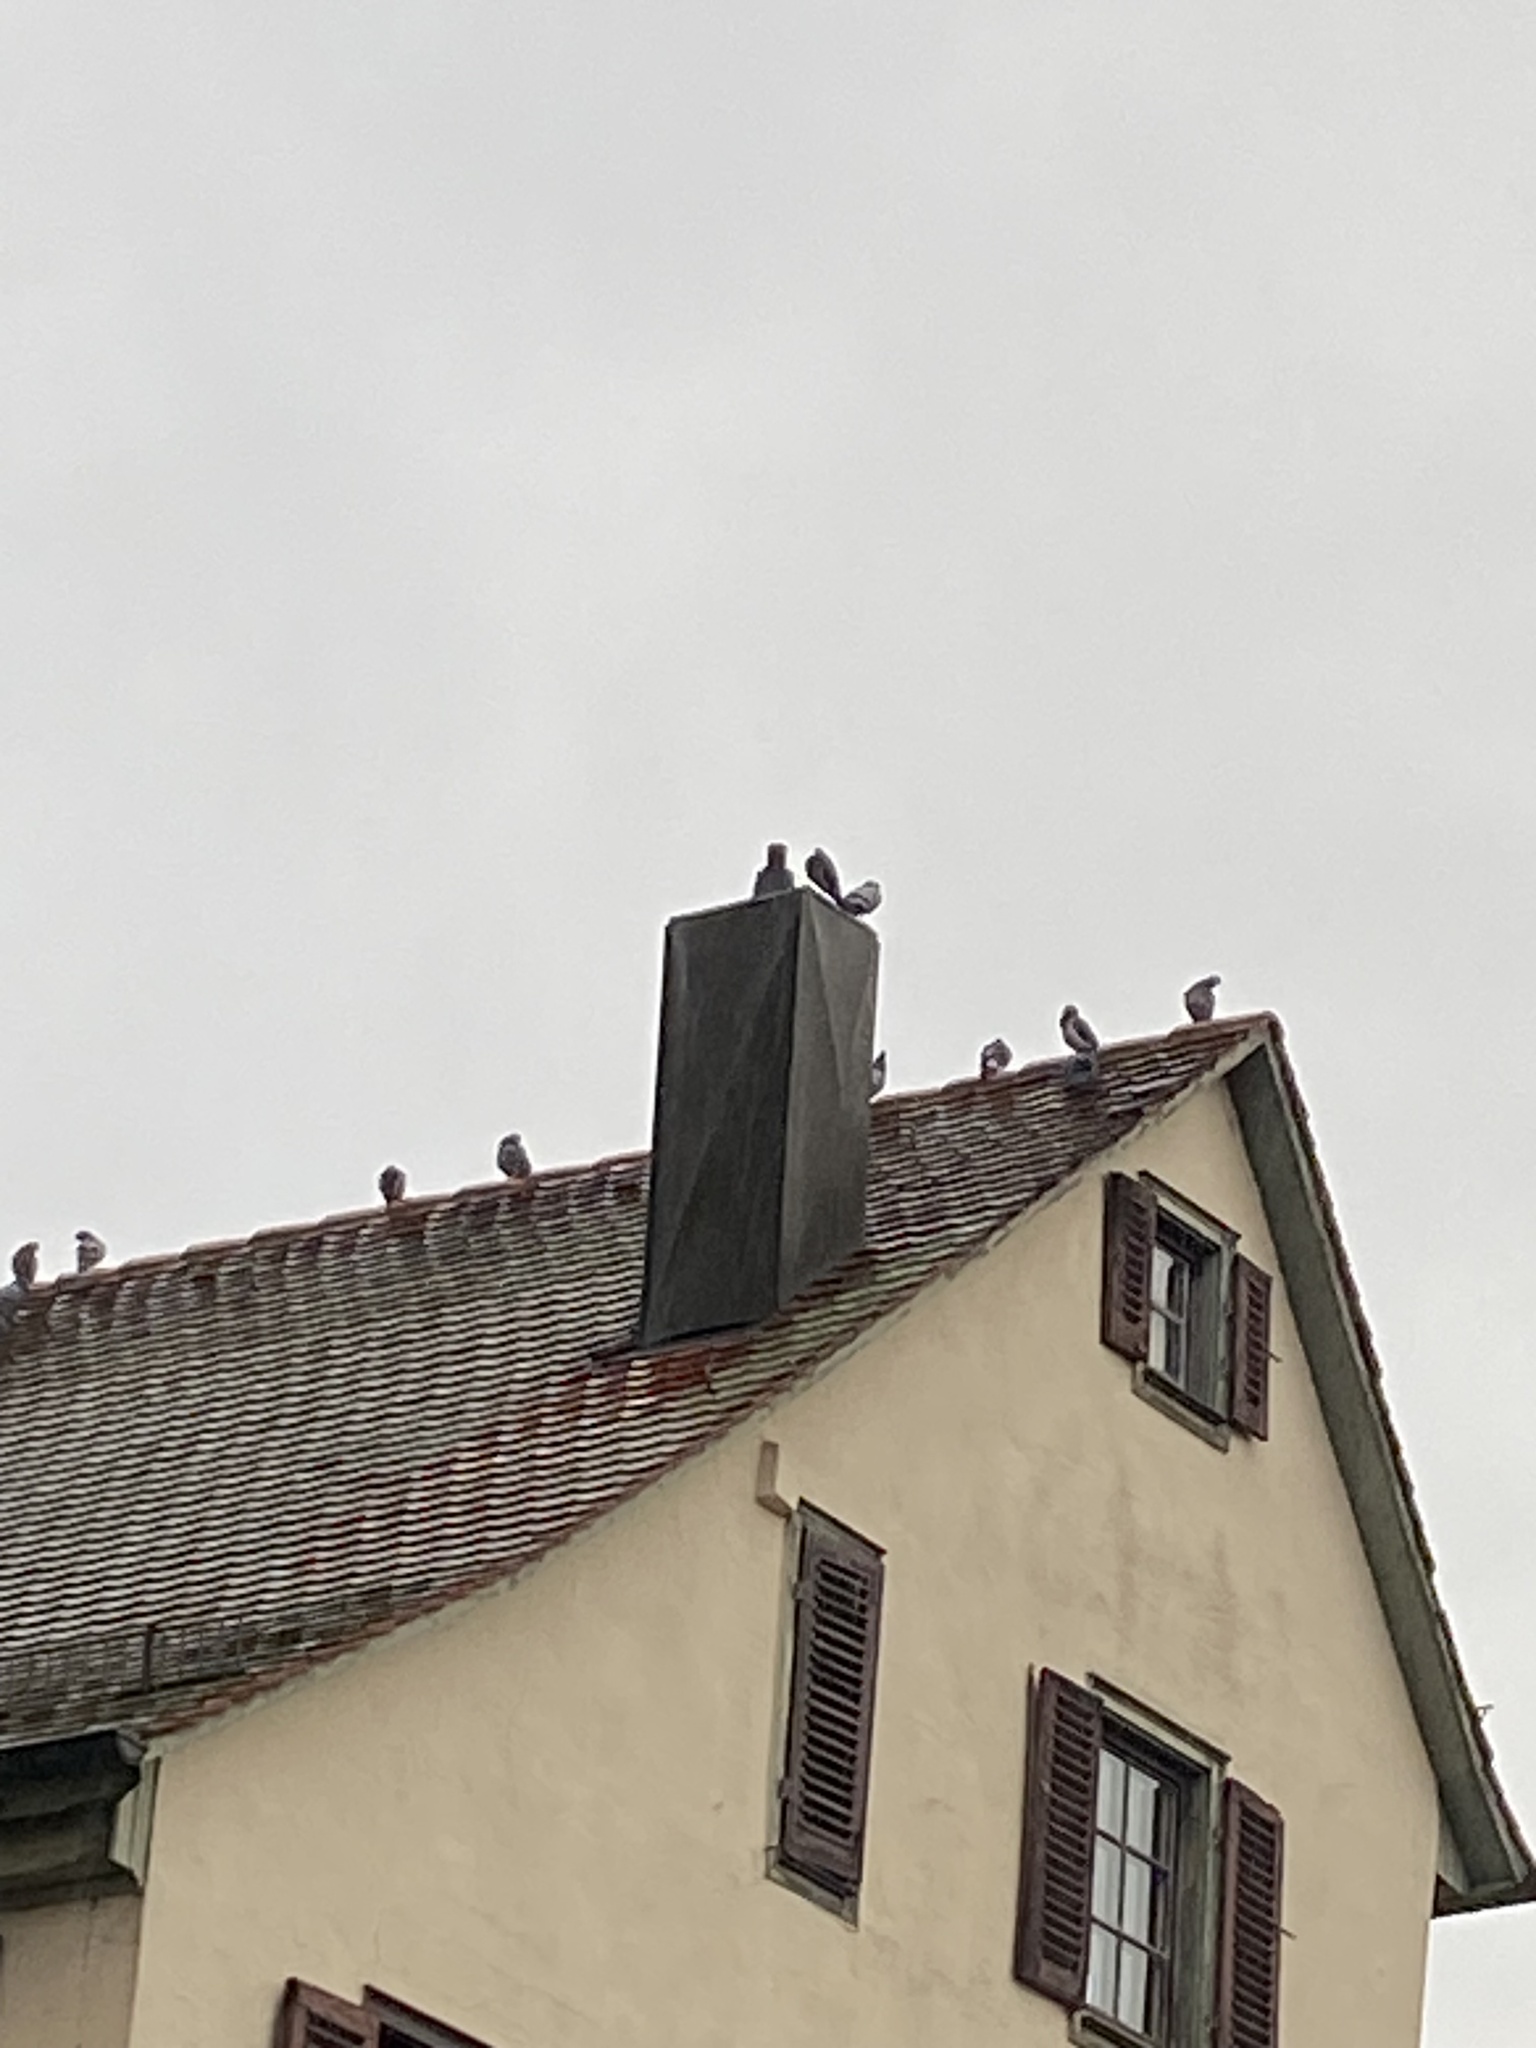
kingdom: Animalia
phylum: Chordata
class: Aves
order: Columbiformes
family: Columbidae
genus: Columba
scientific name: Columba livia
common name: Rock pigeon
